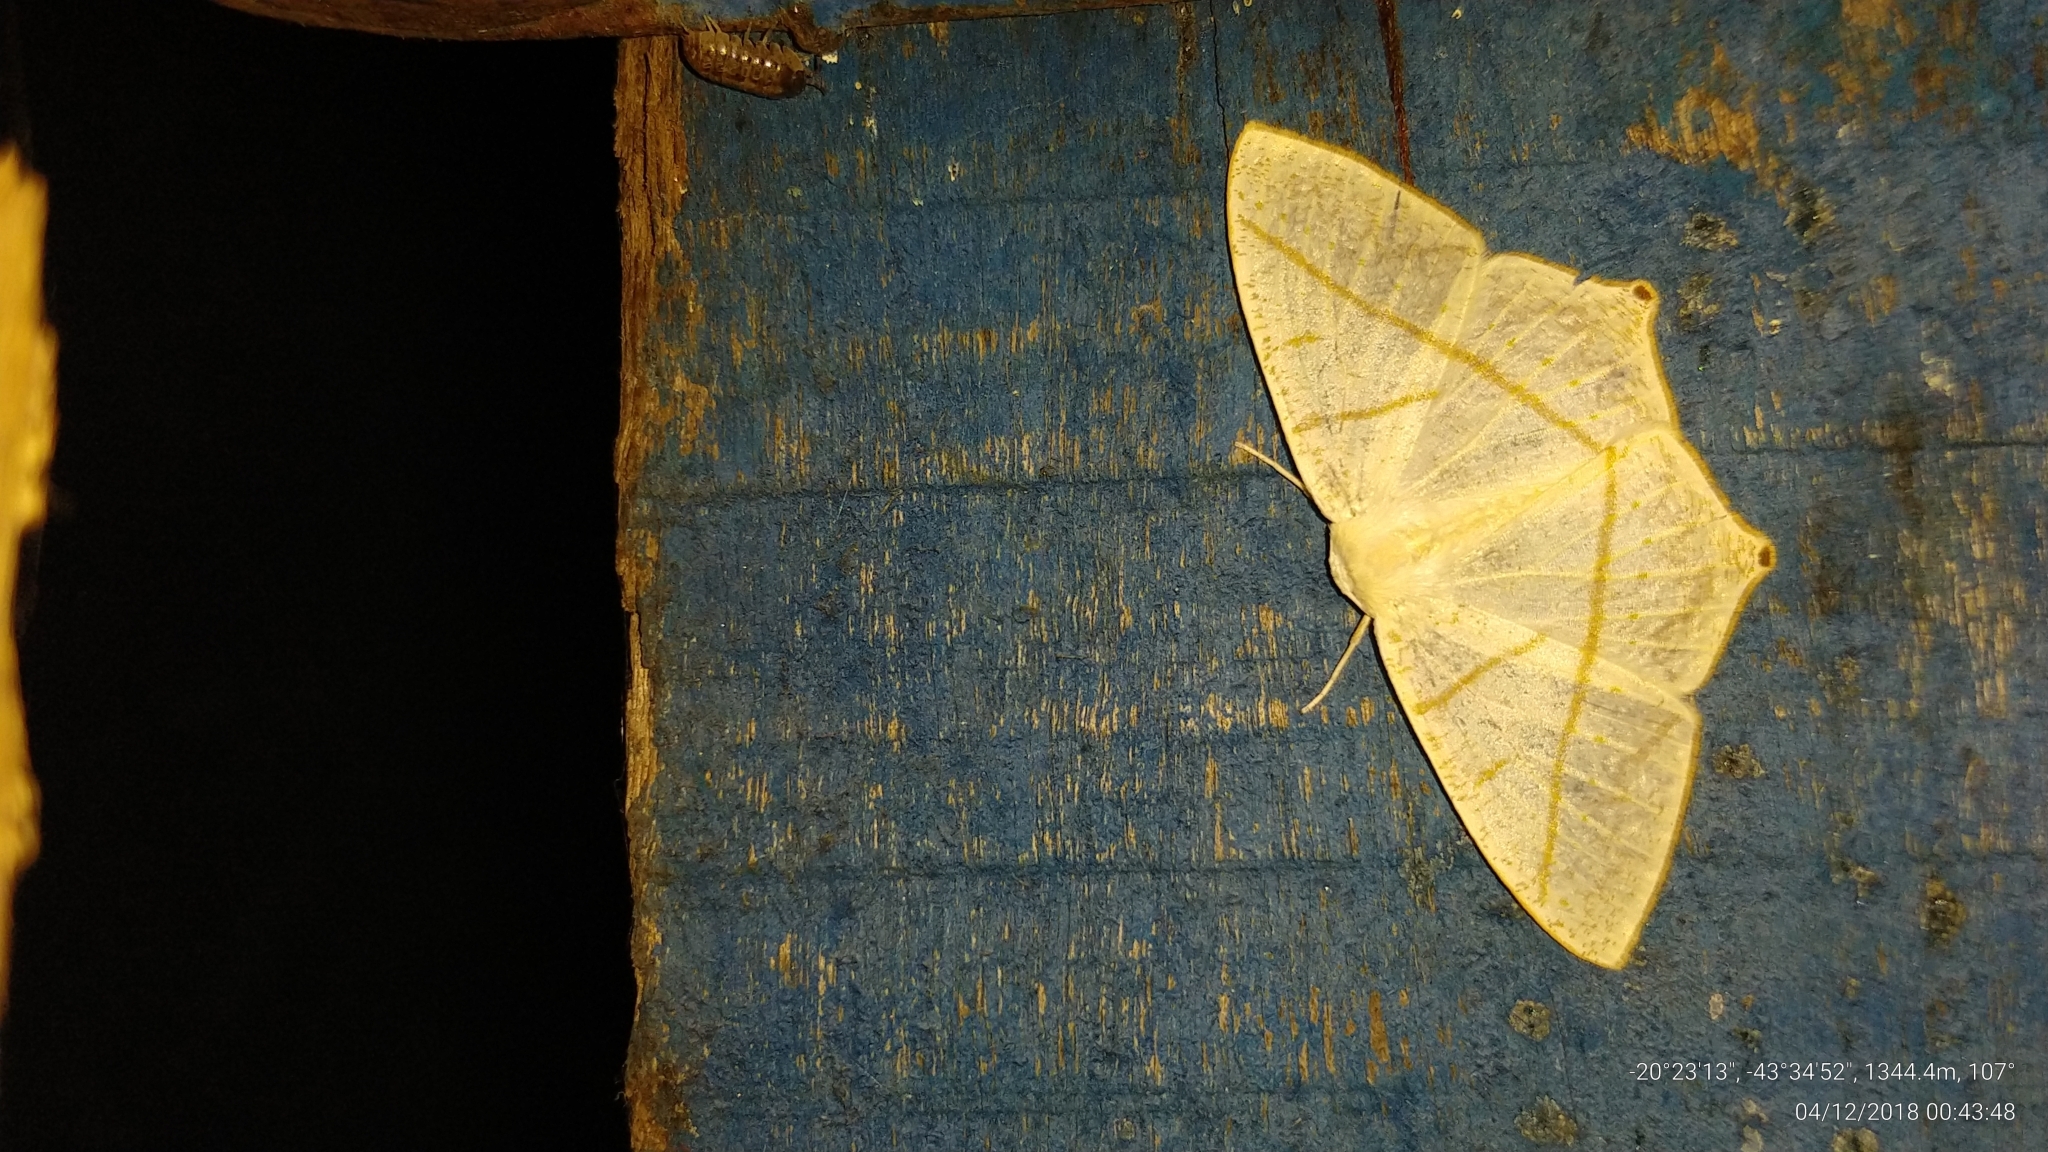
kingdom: Animalia
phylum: Arthropoda
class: Insecta
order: Lepidoptera
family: Geometridae
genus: Brachurapteryx
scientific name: Brachurapteryx breviaria
